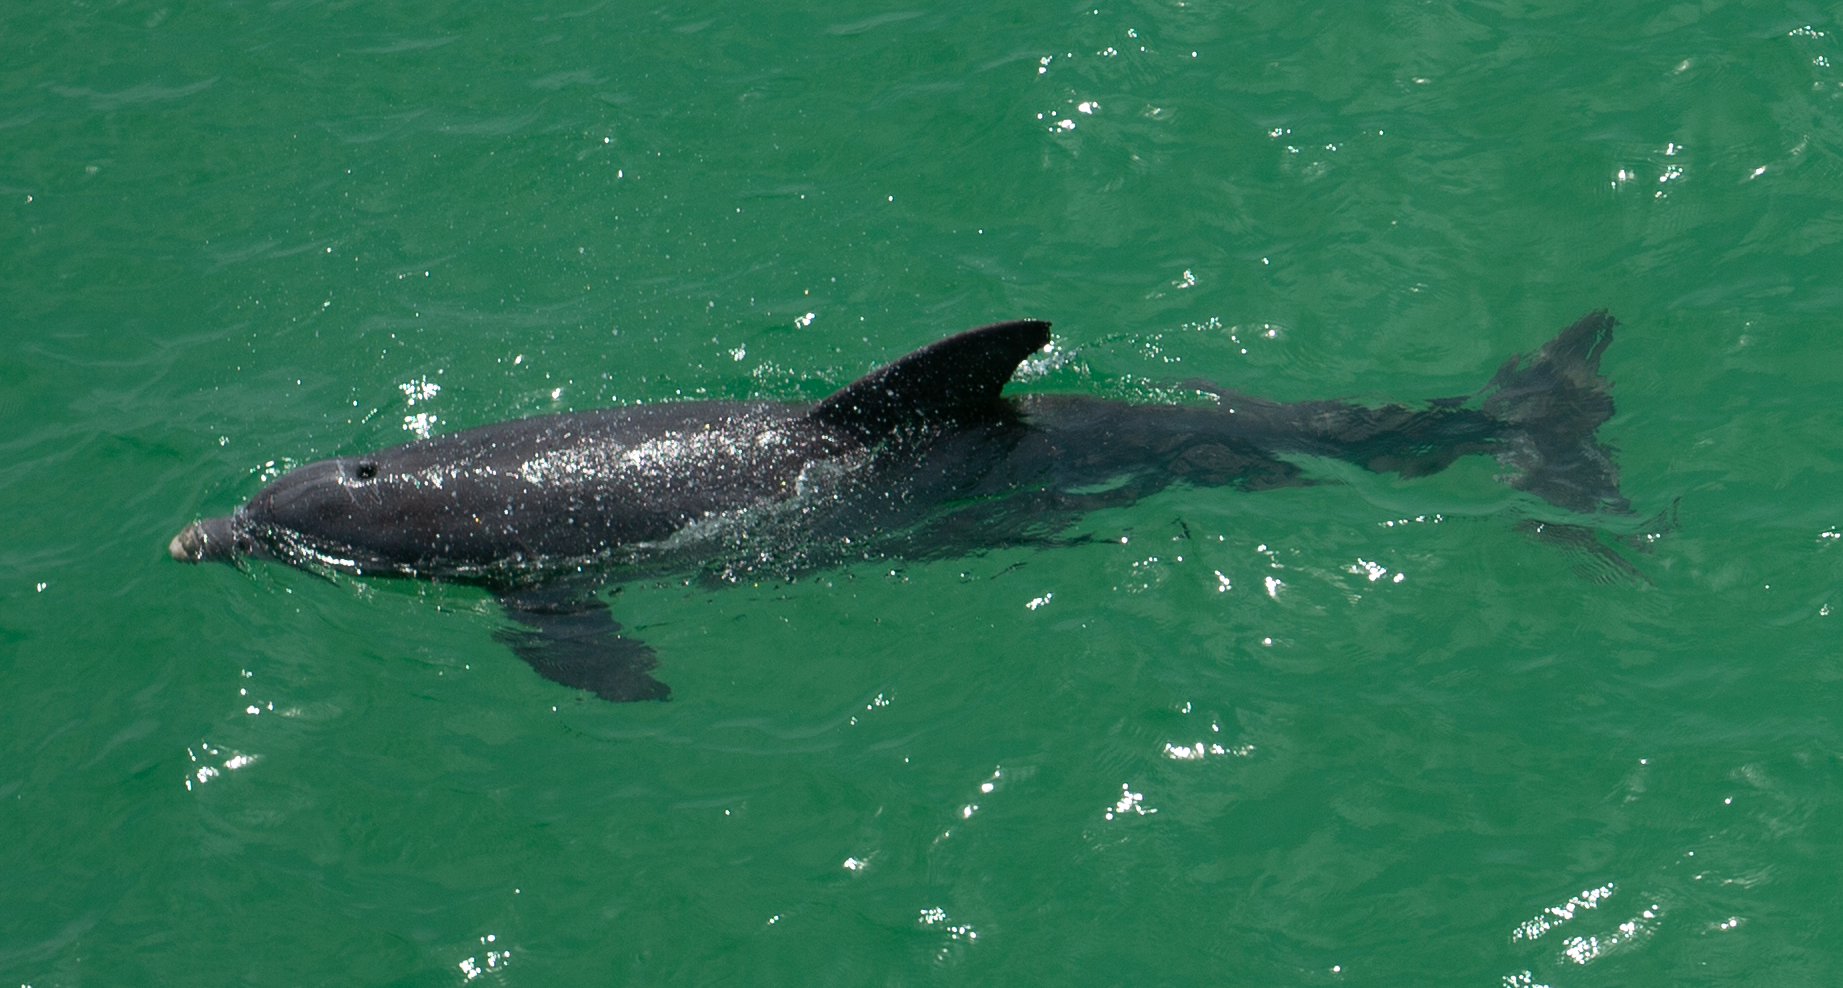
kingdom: Animalia
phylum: Chordata
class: Mammalia
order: Cetacea
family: Delphinidae
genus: Tursiops
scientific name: Tursiops truncatus
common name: Bottlenose dolphin
